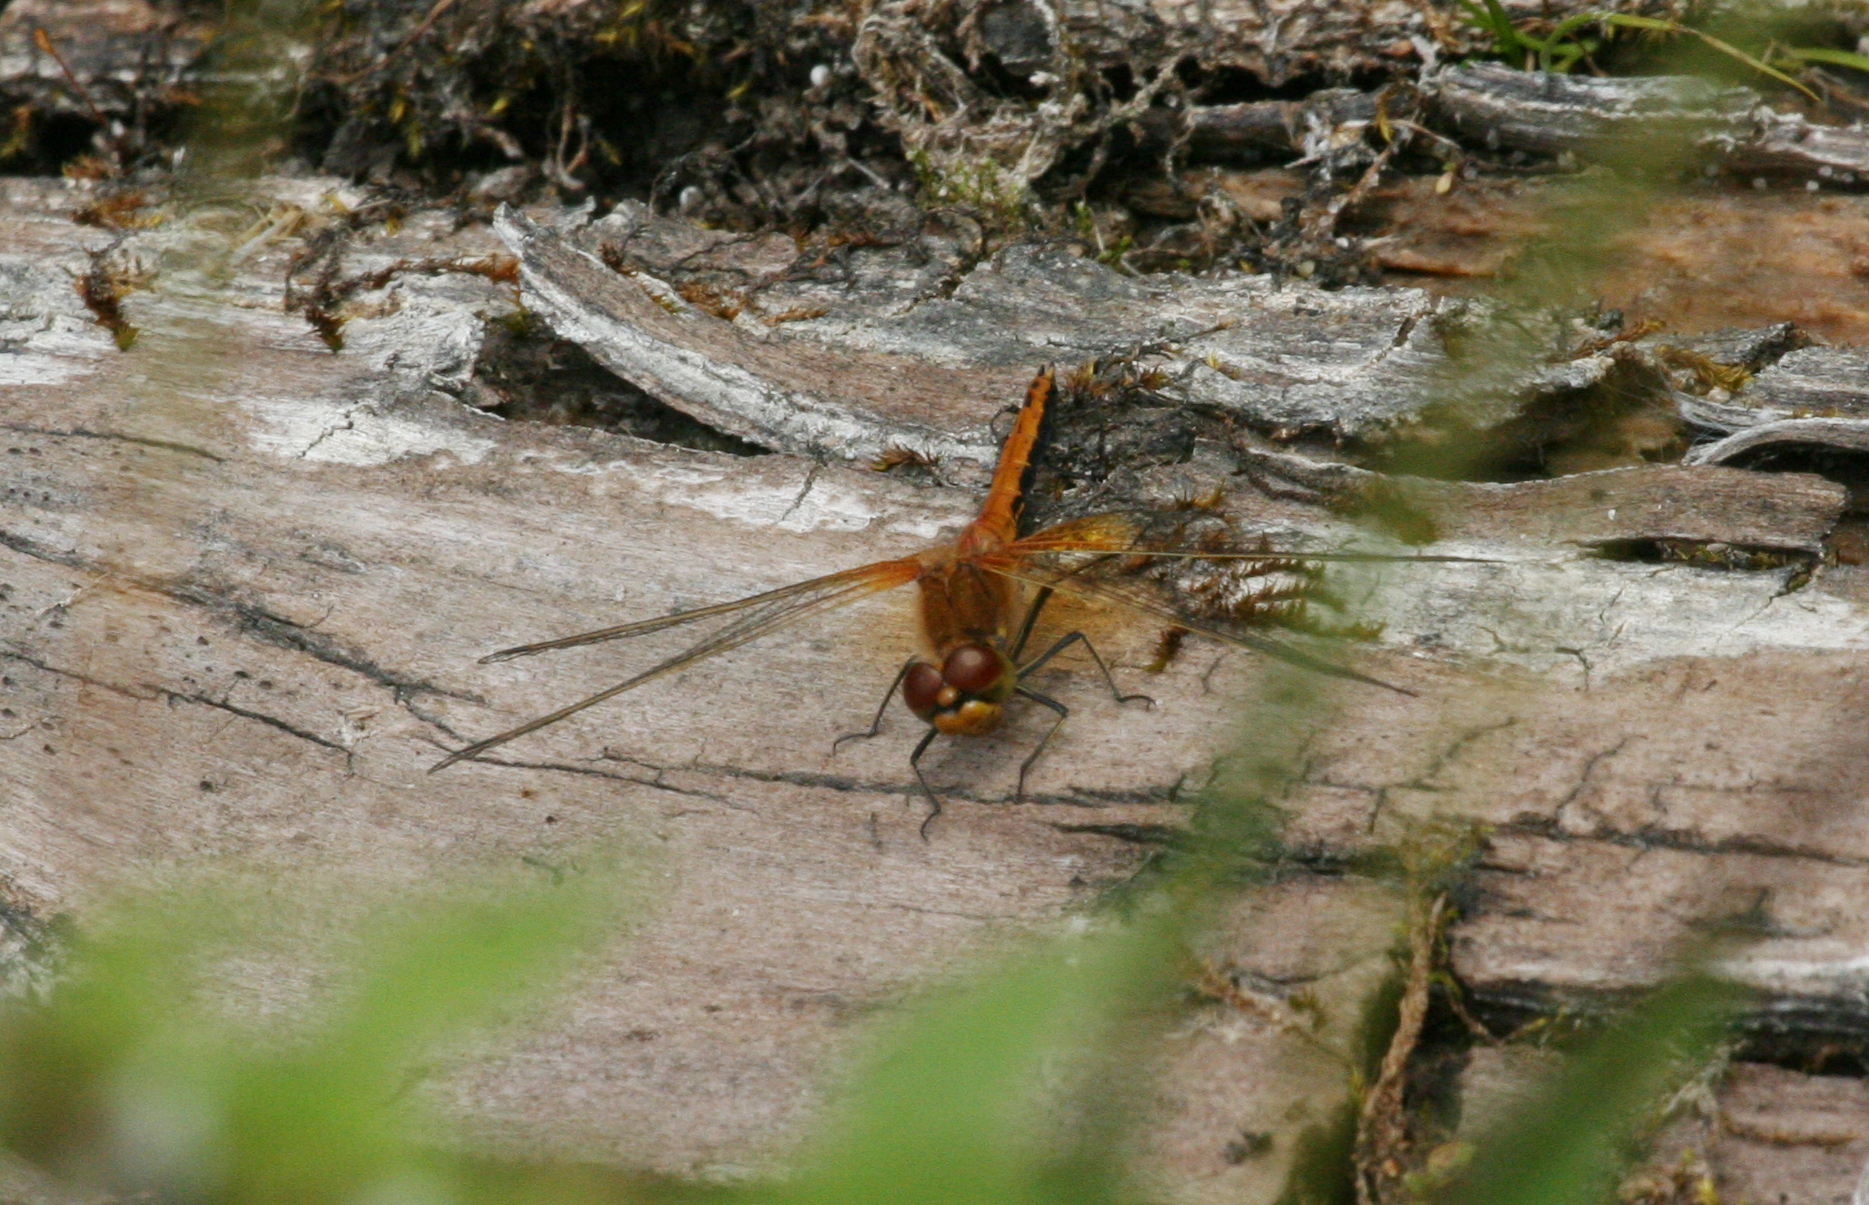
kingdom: Animalia
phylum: Arthropoda
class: Insecta
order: Odonata
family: Libellulidae
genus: Sympetrum
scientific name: Sympetrum flaveolum
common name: Yellow-winged darter
